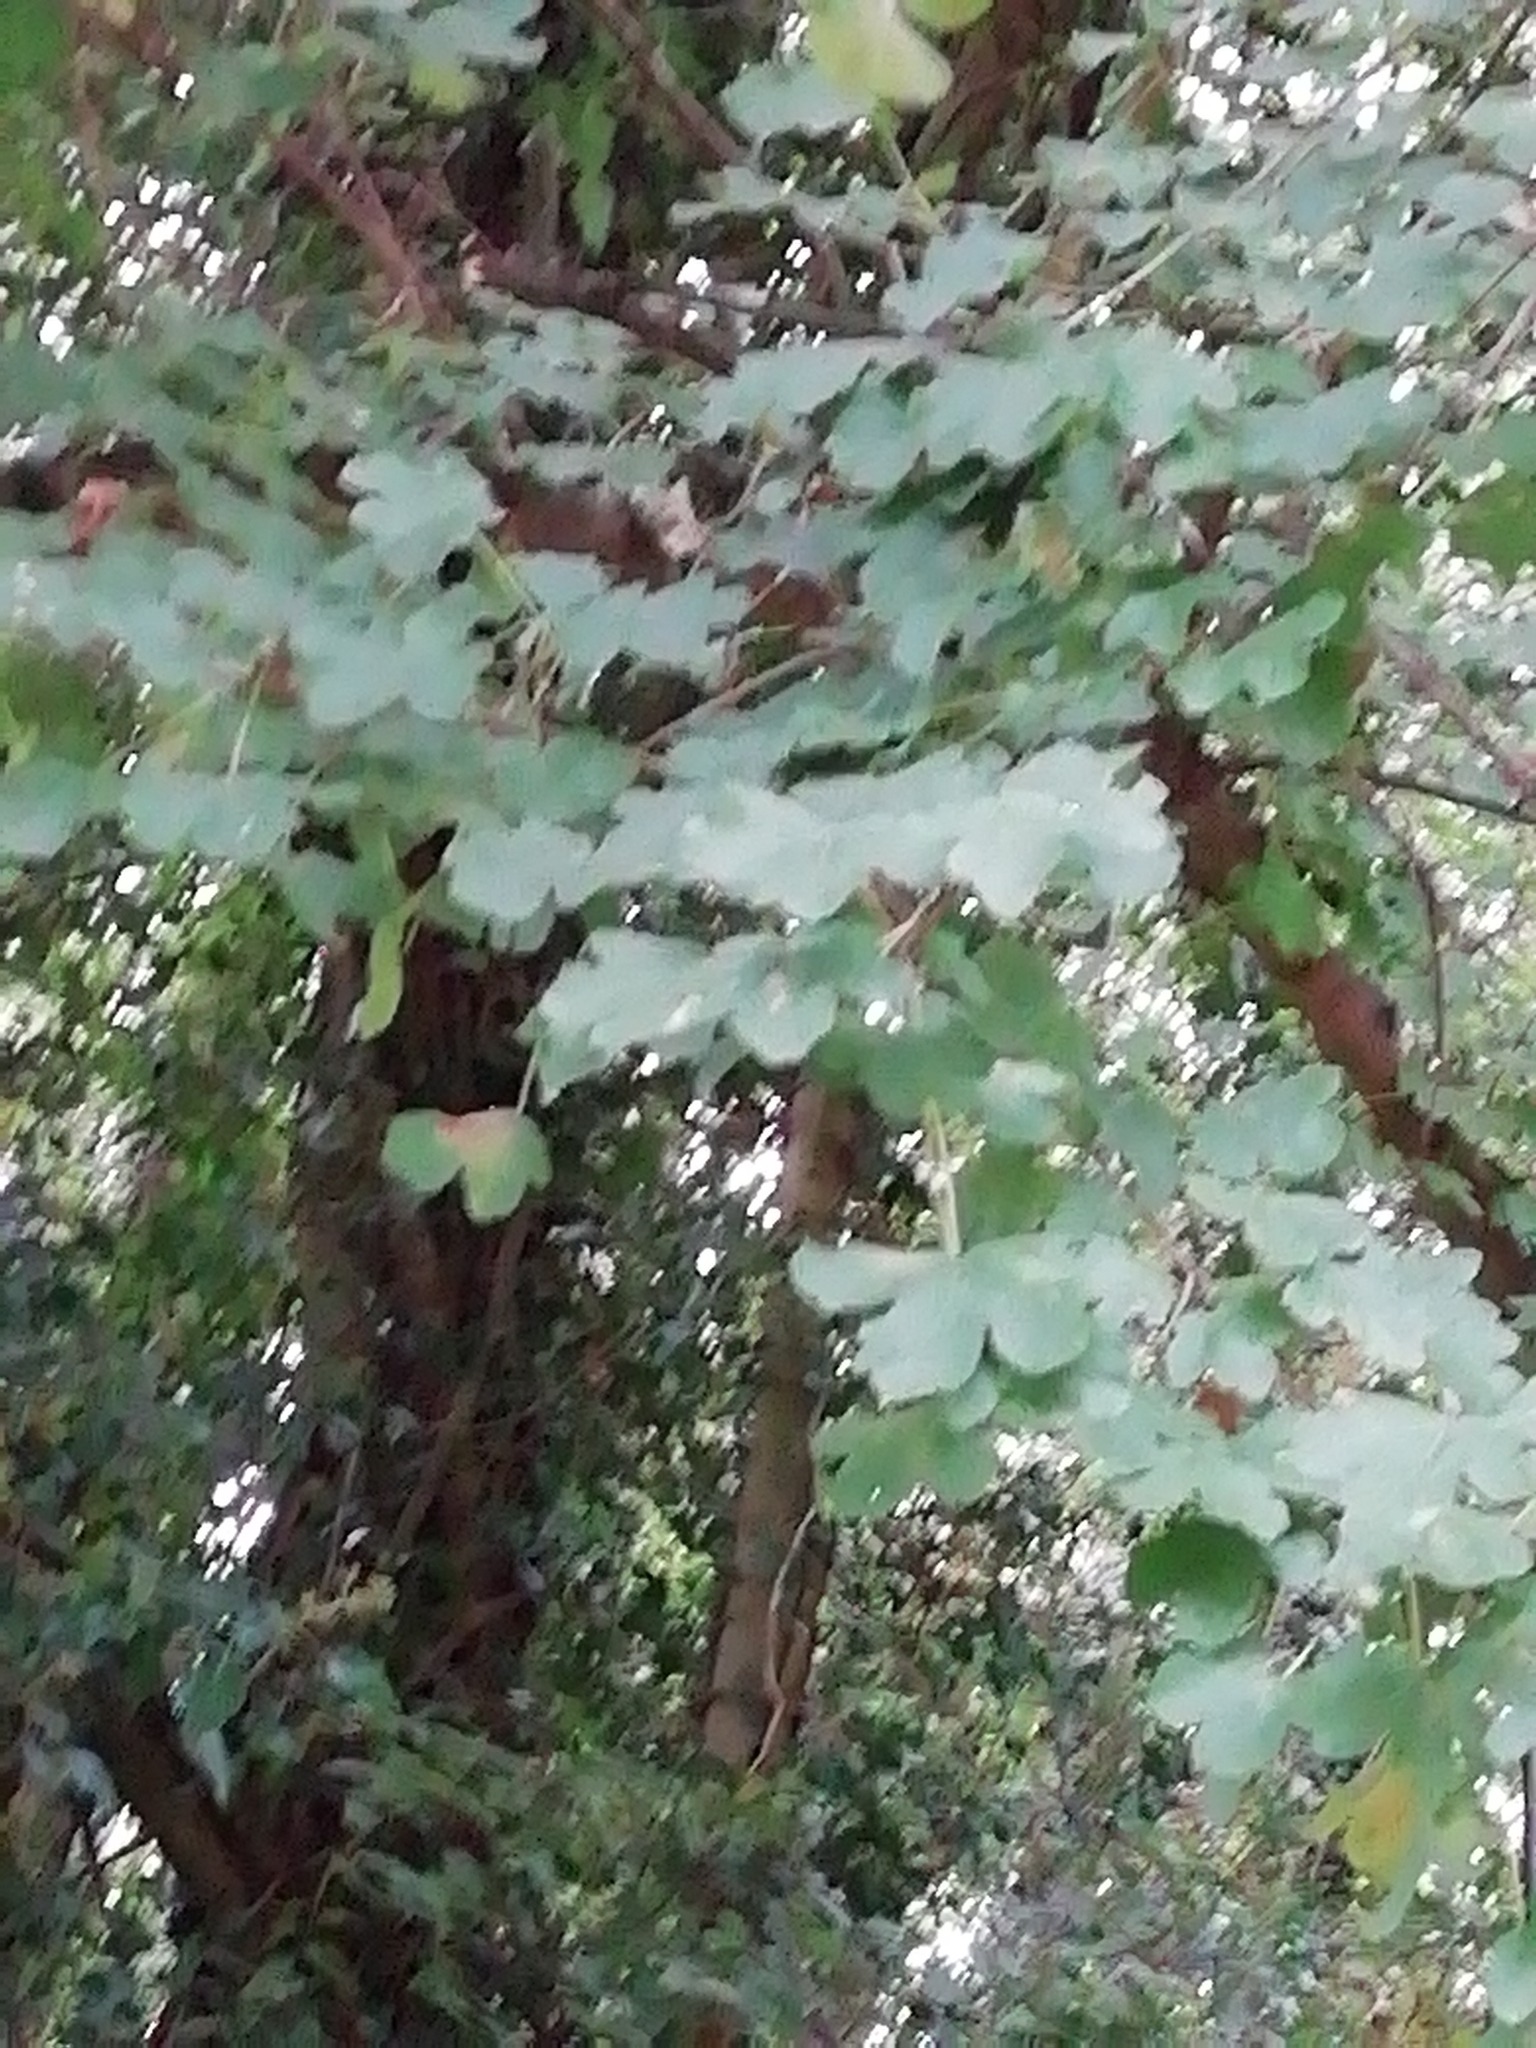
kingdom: Plantae
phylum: Tracheophyta
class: Magnoliopsida
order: Sapindales
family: Sapindaceae
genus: Acer
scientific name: Acer campestre
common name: Field maple
